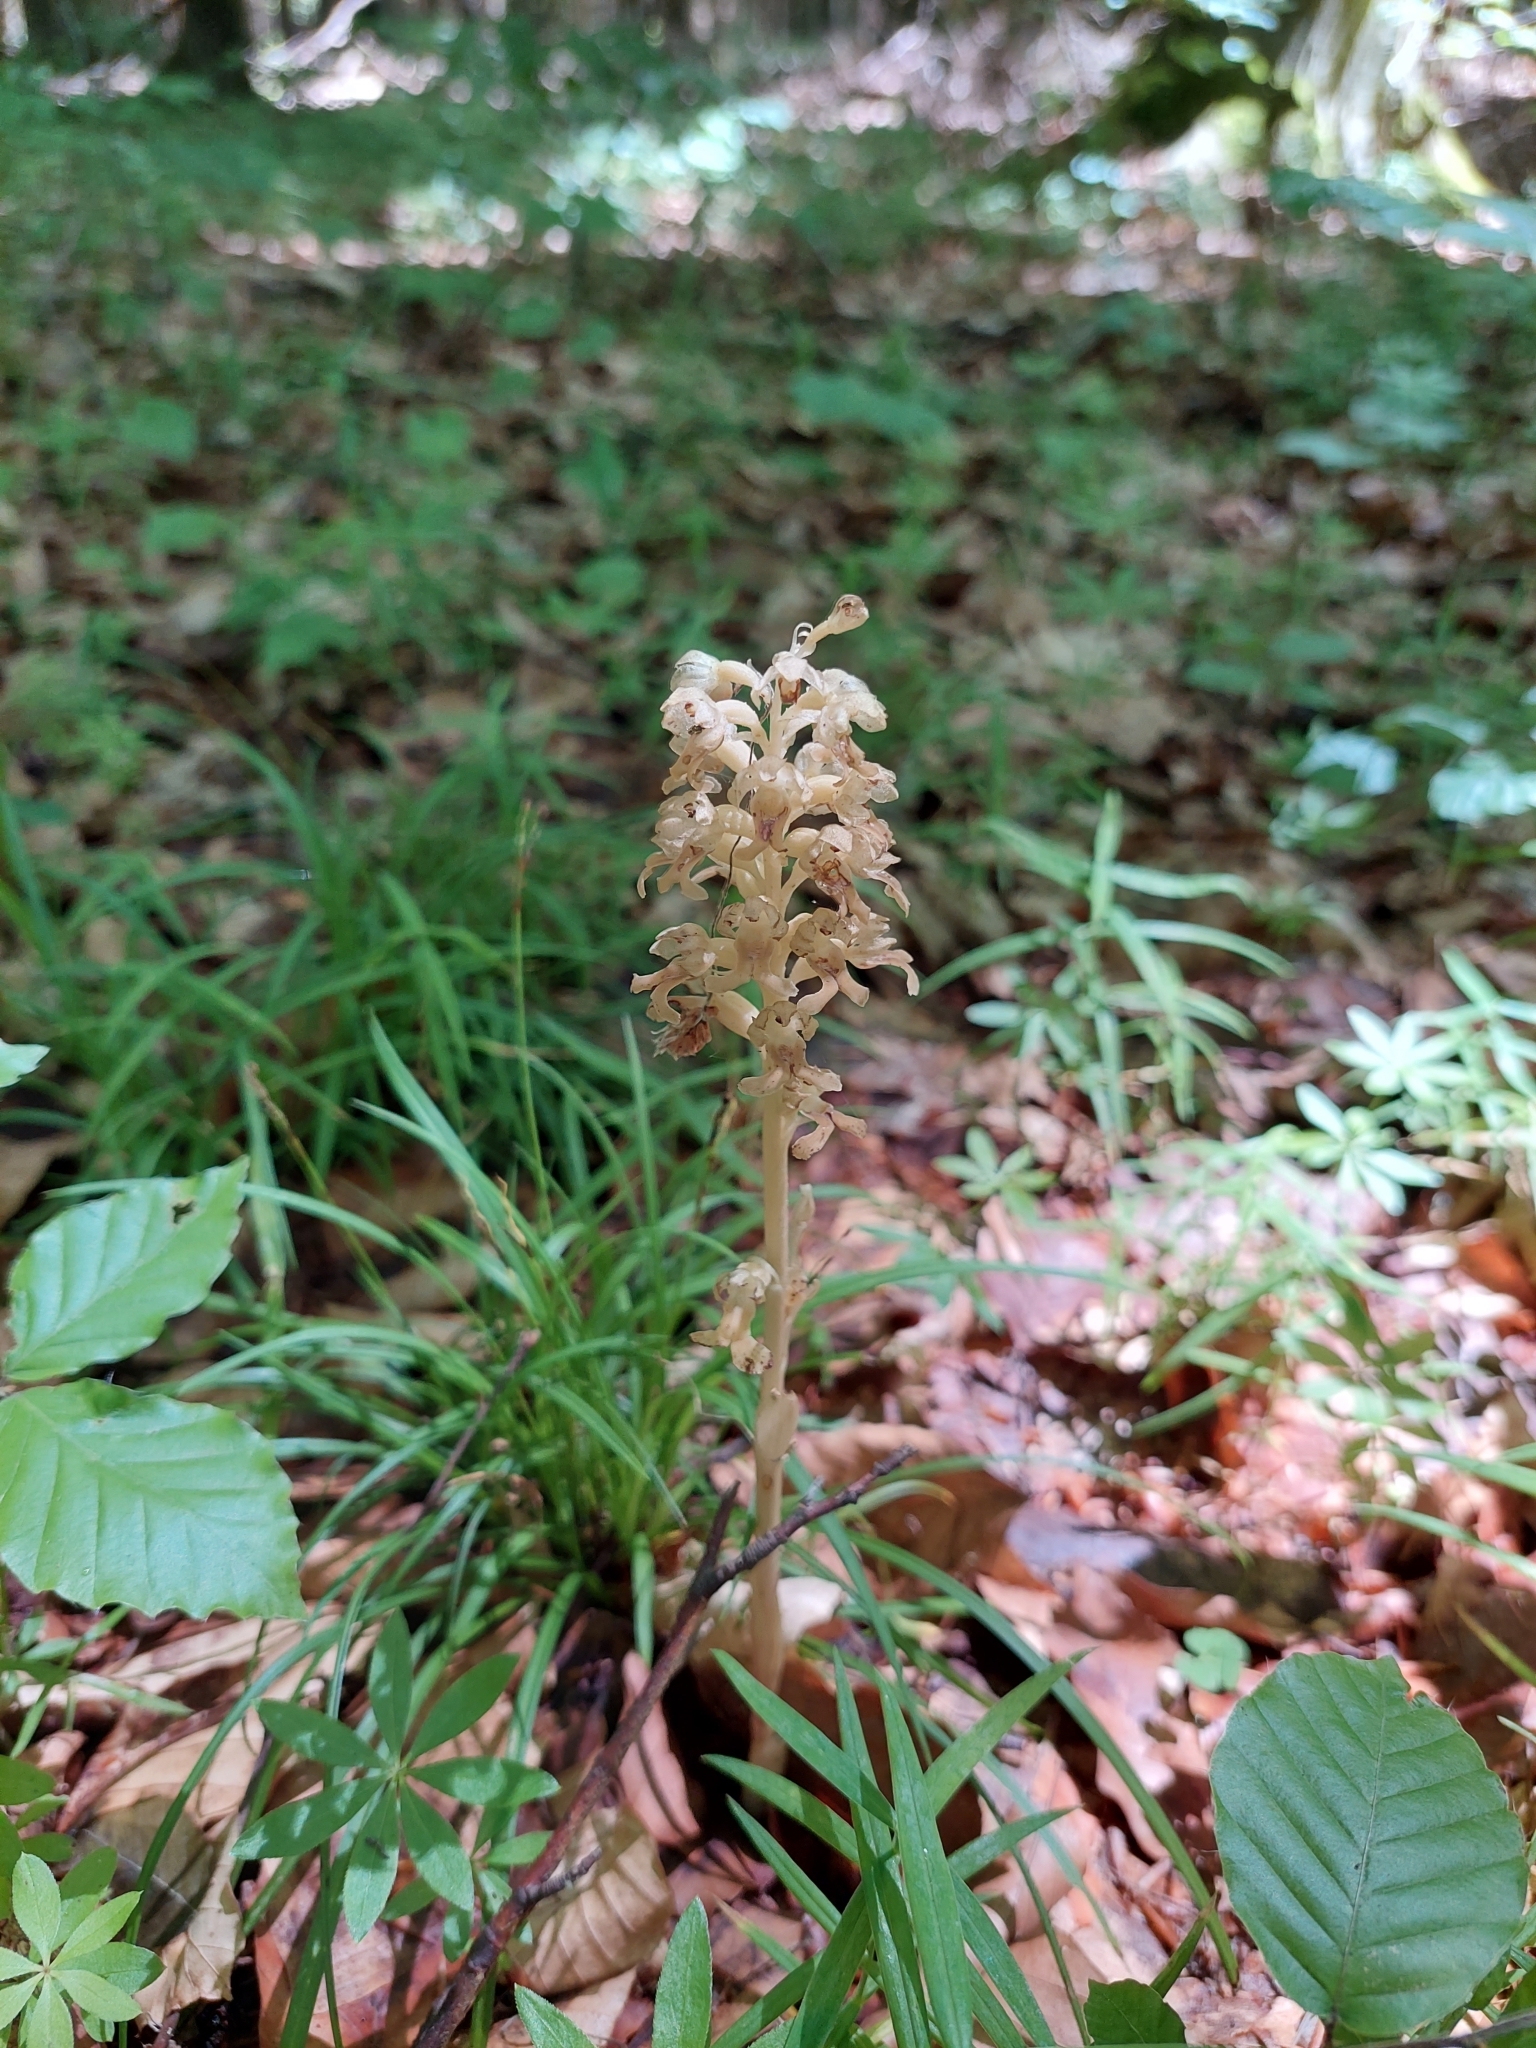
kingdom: Plantae
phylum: Tracheophyta
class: Liliopsida
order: Asparagales
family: Orchidaceae
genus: Neottia
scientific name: Neottia nidus-avis
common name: Bird's-nest orchid
